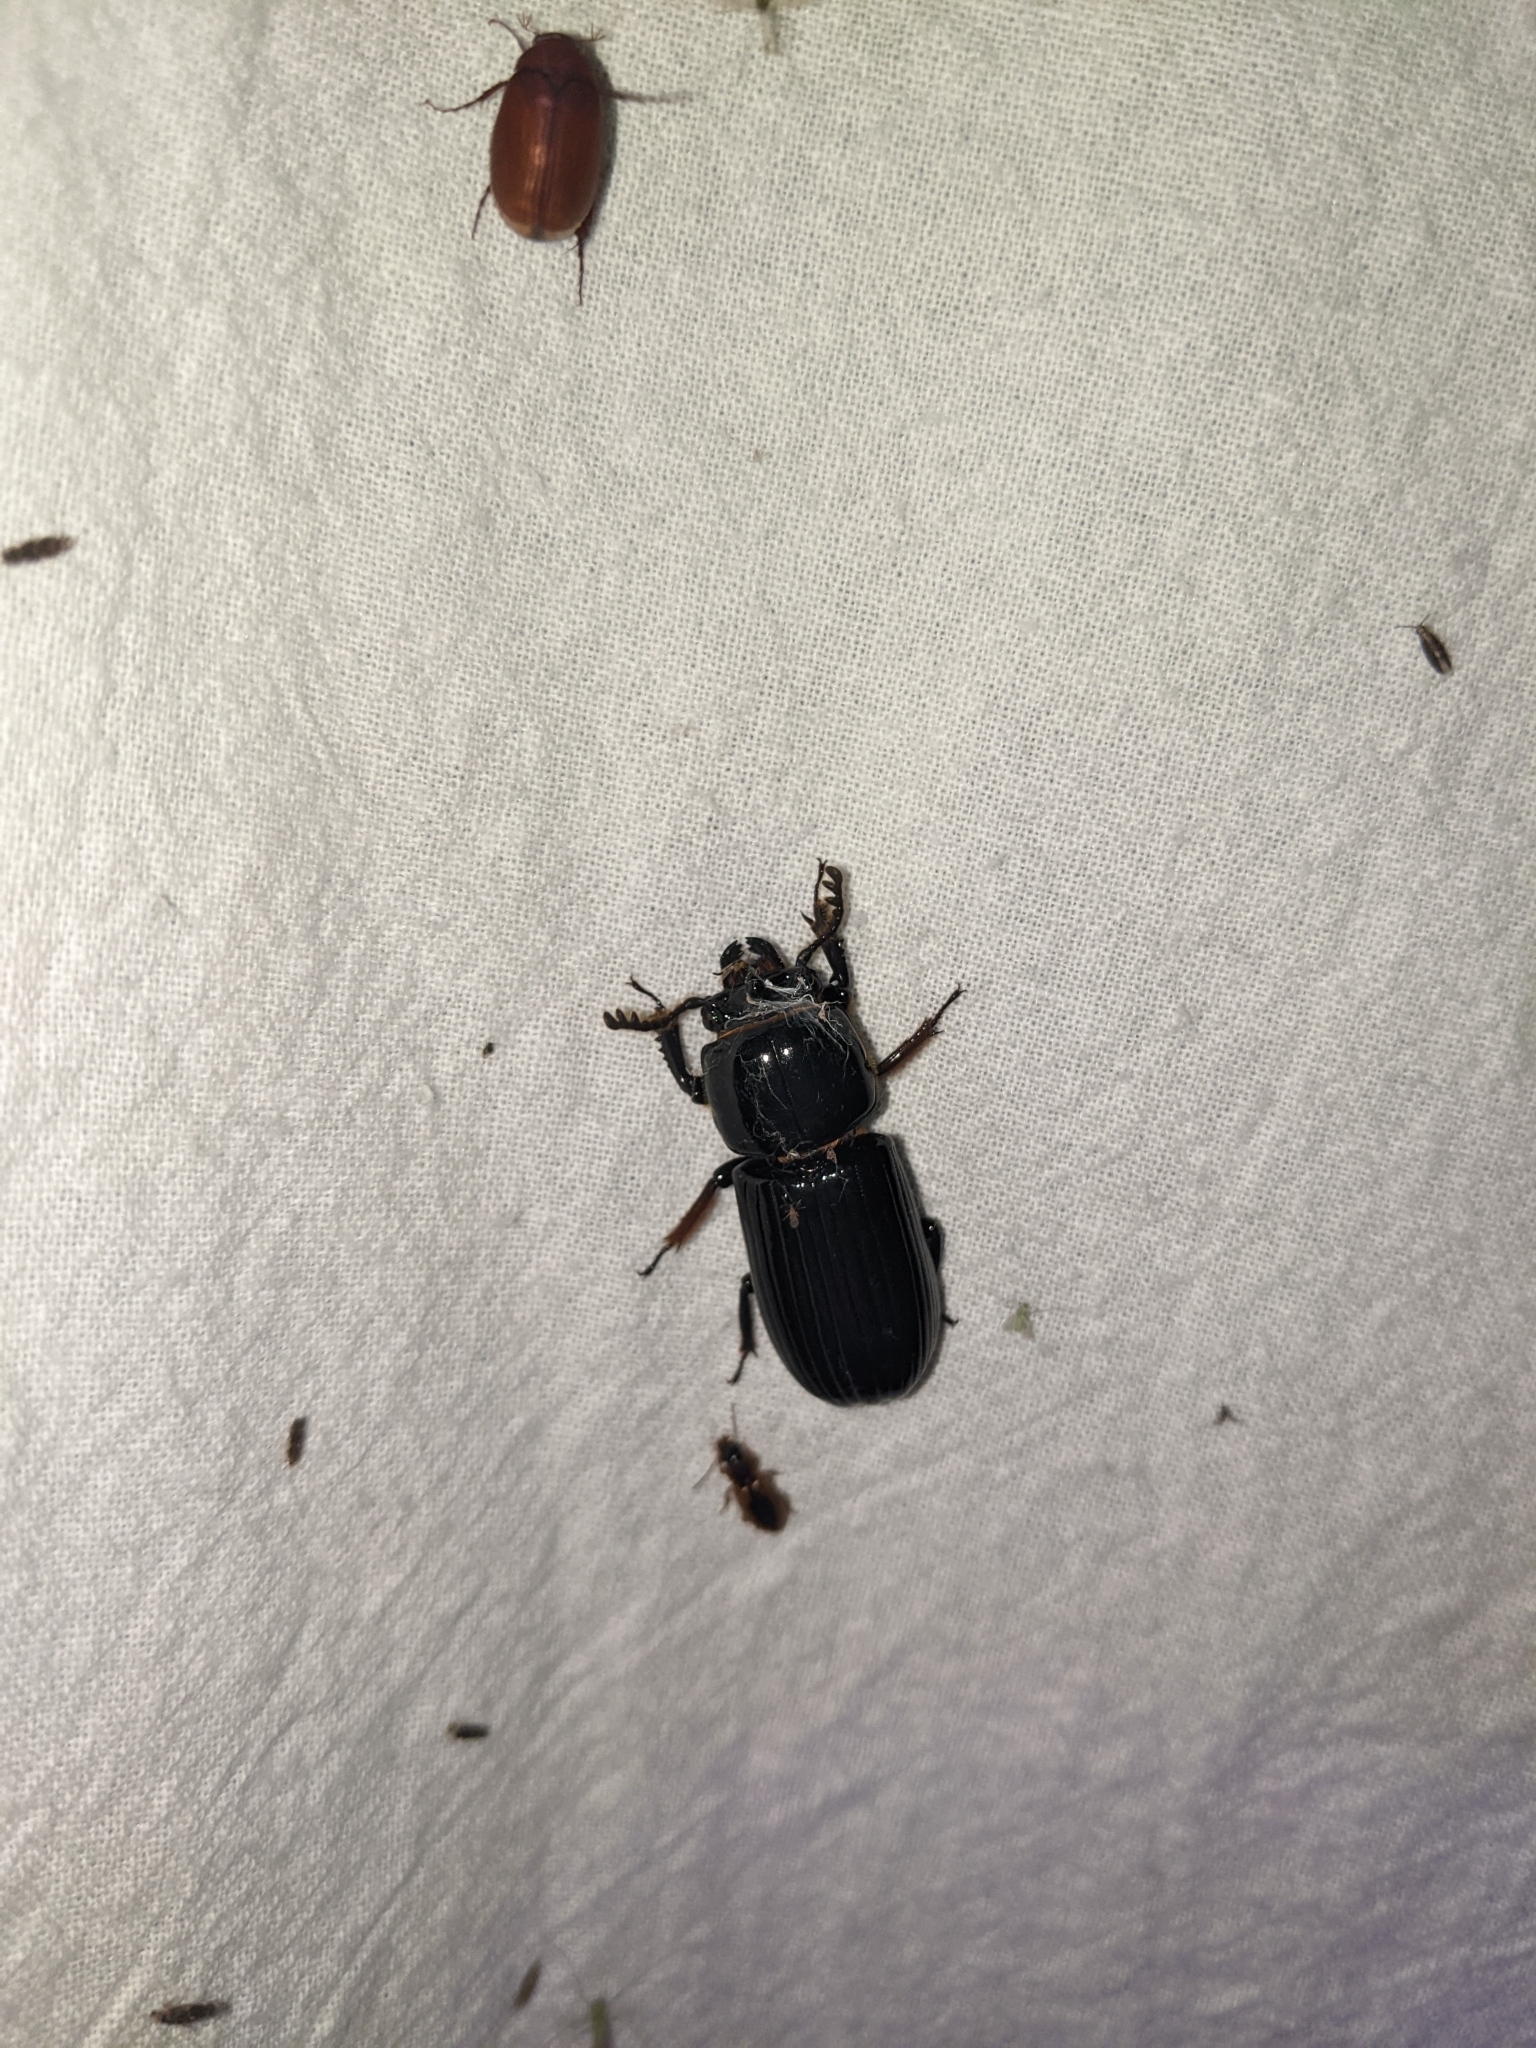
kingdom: Animalia
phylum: Arthropoda
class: Insecta
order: Coleoptera
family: Passalidae
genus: Odontotaenius
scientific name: Odontotaenius disjunctus
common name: Patent leather beetle
